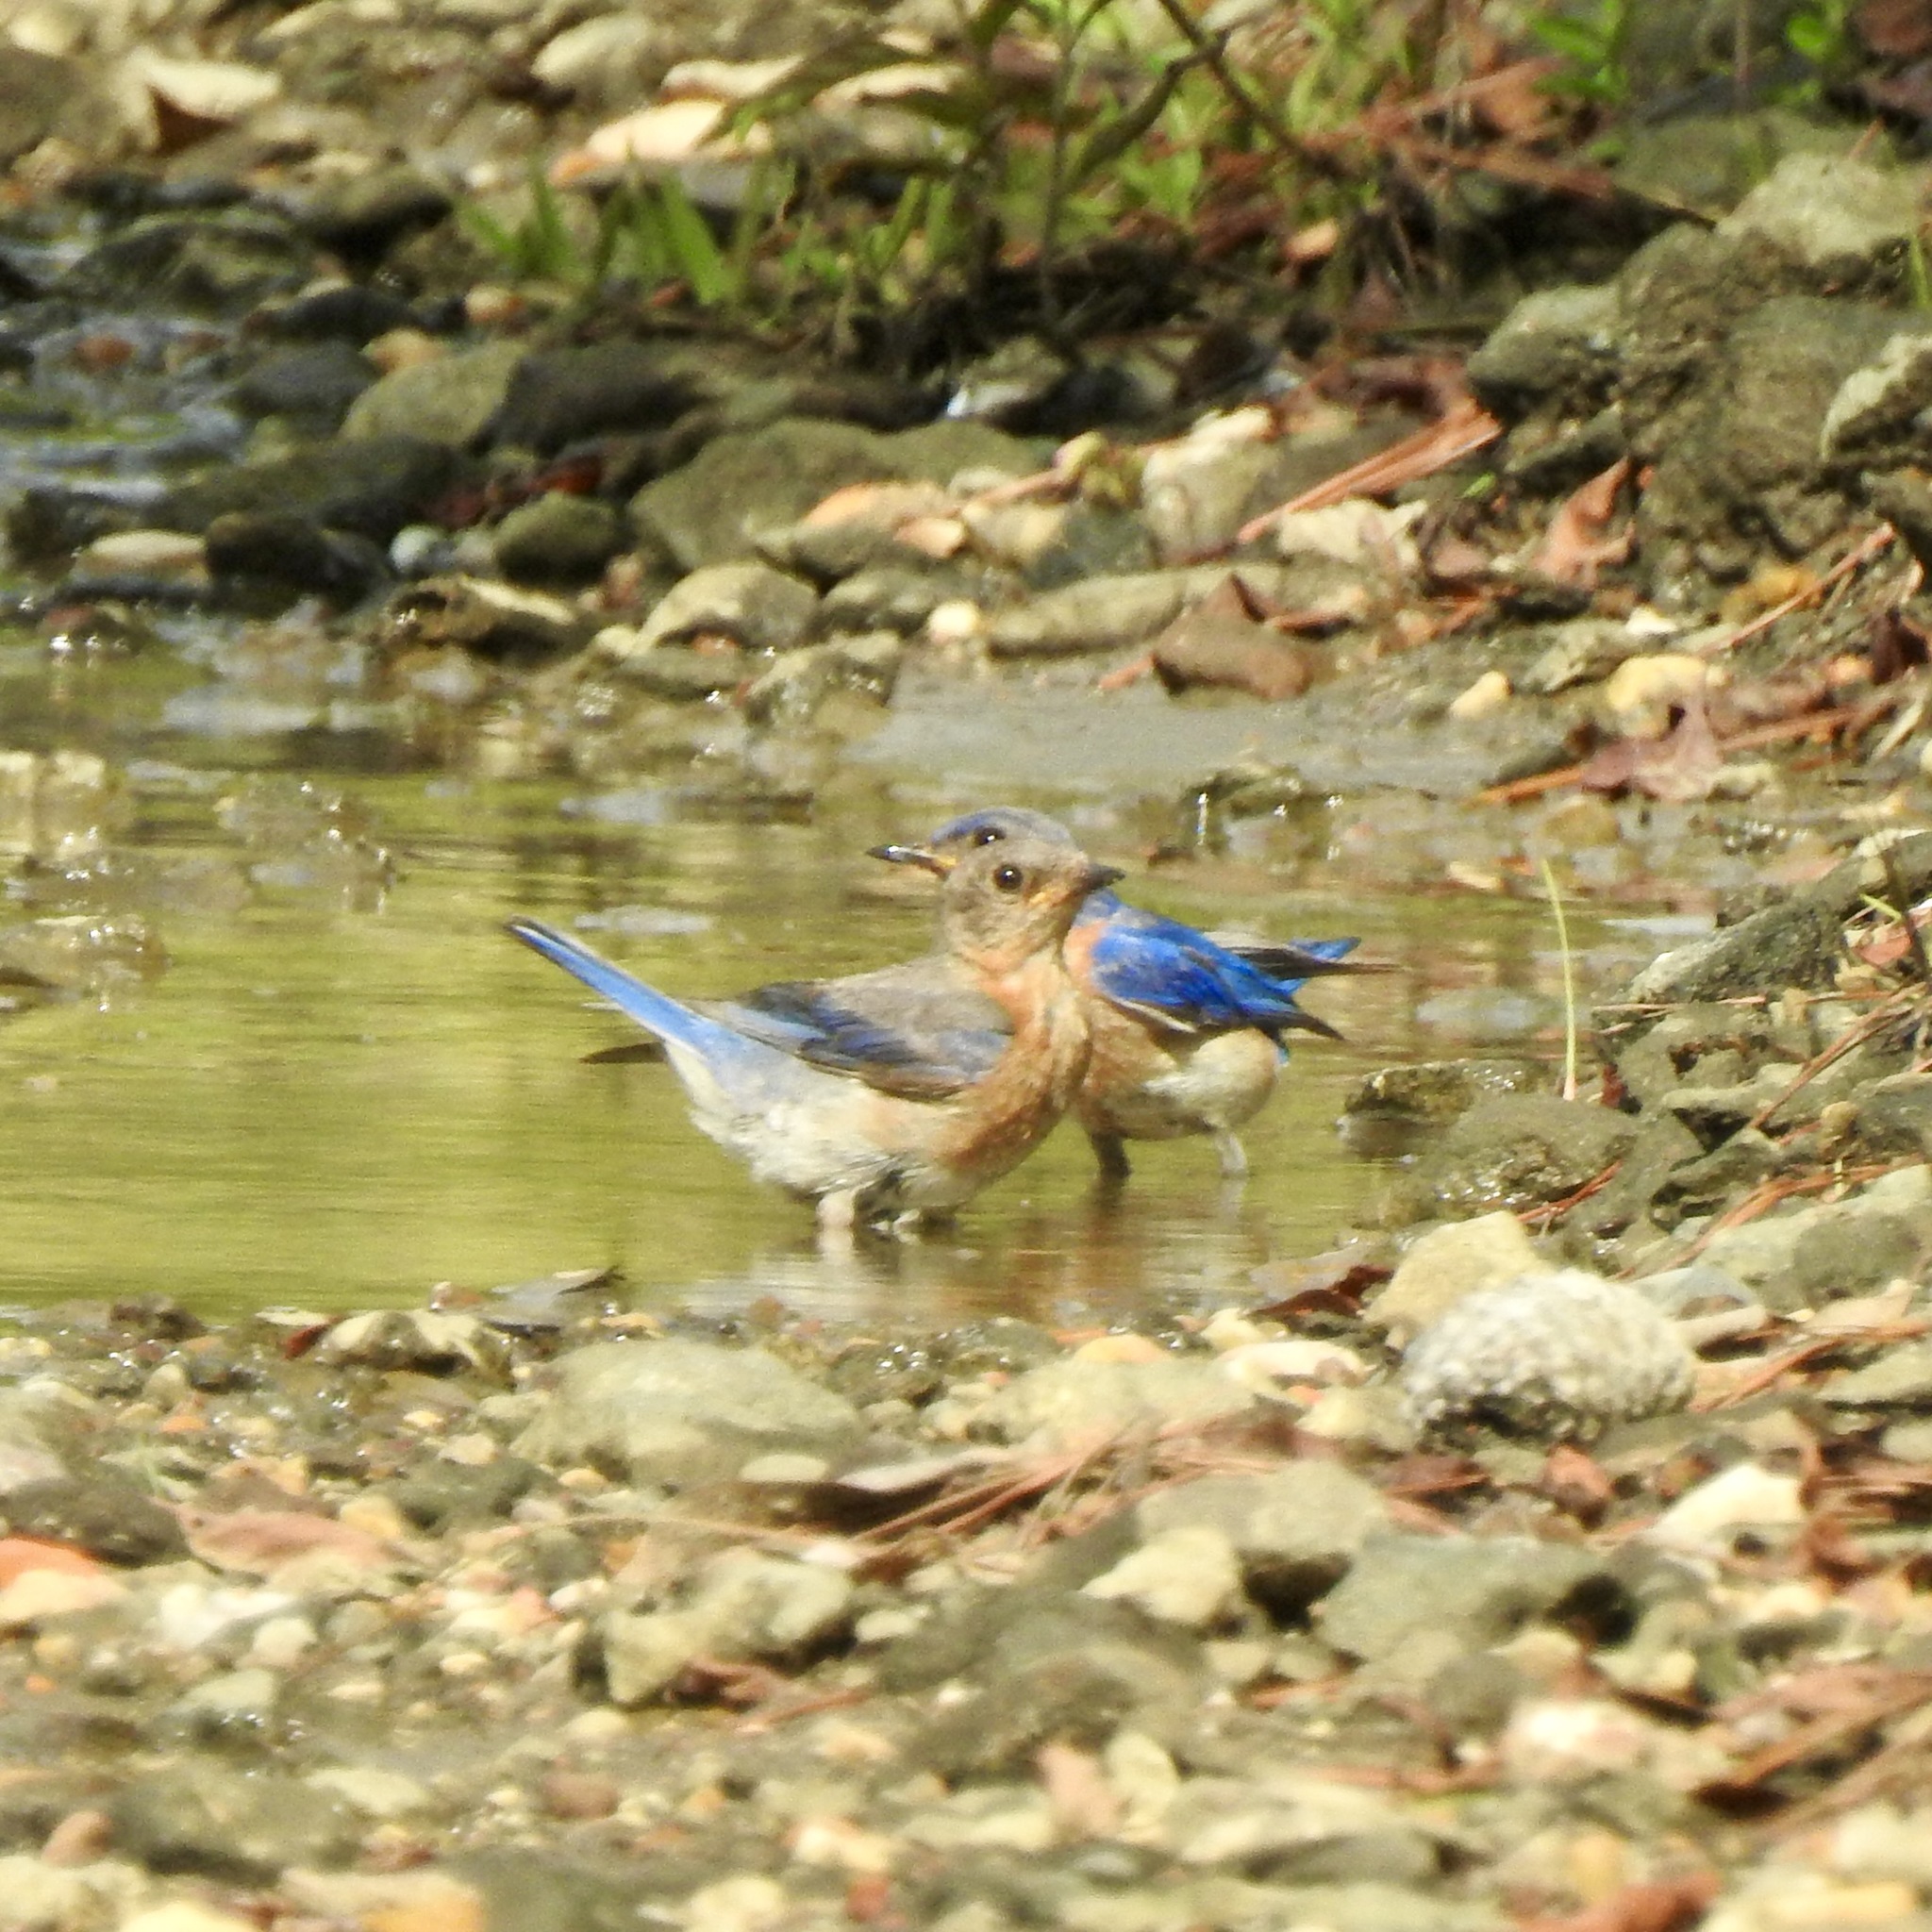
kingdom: Animalia
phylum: Chordata
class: Aves
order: Passeriformes
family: Turdidae
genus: Sialia
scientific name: Sialia sialis
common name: Eastern bluebird
